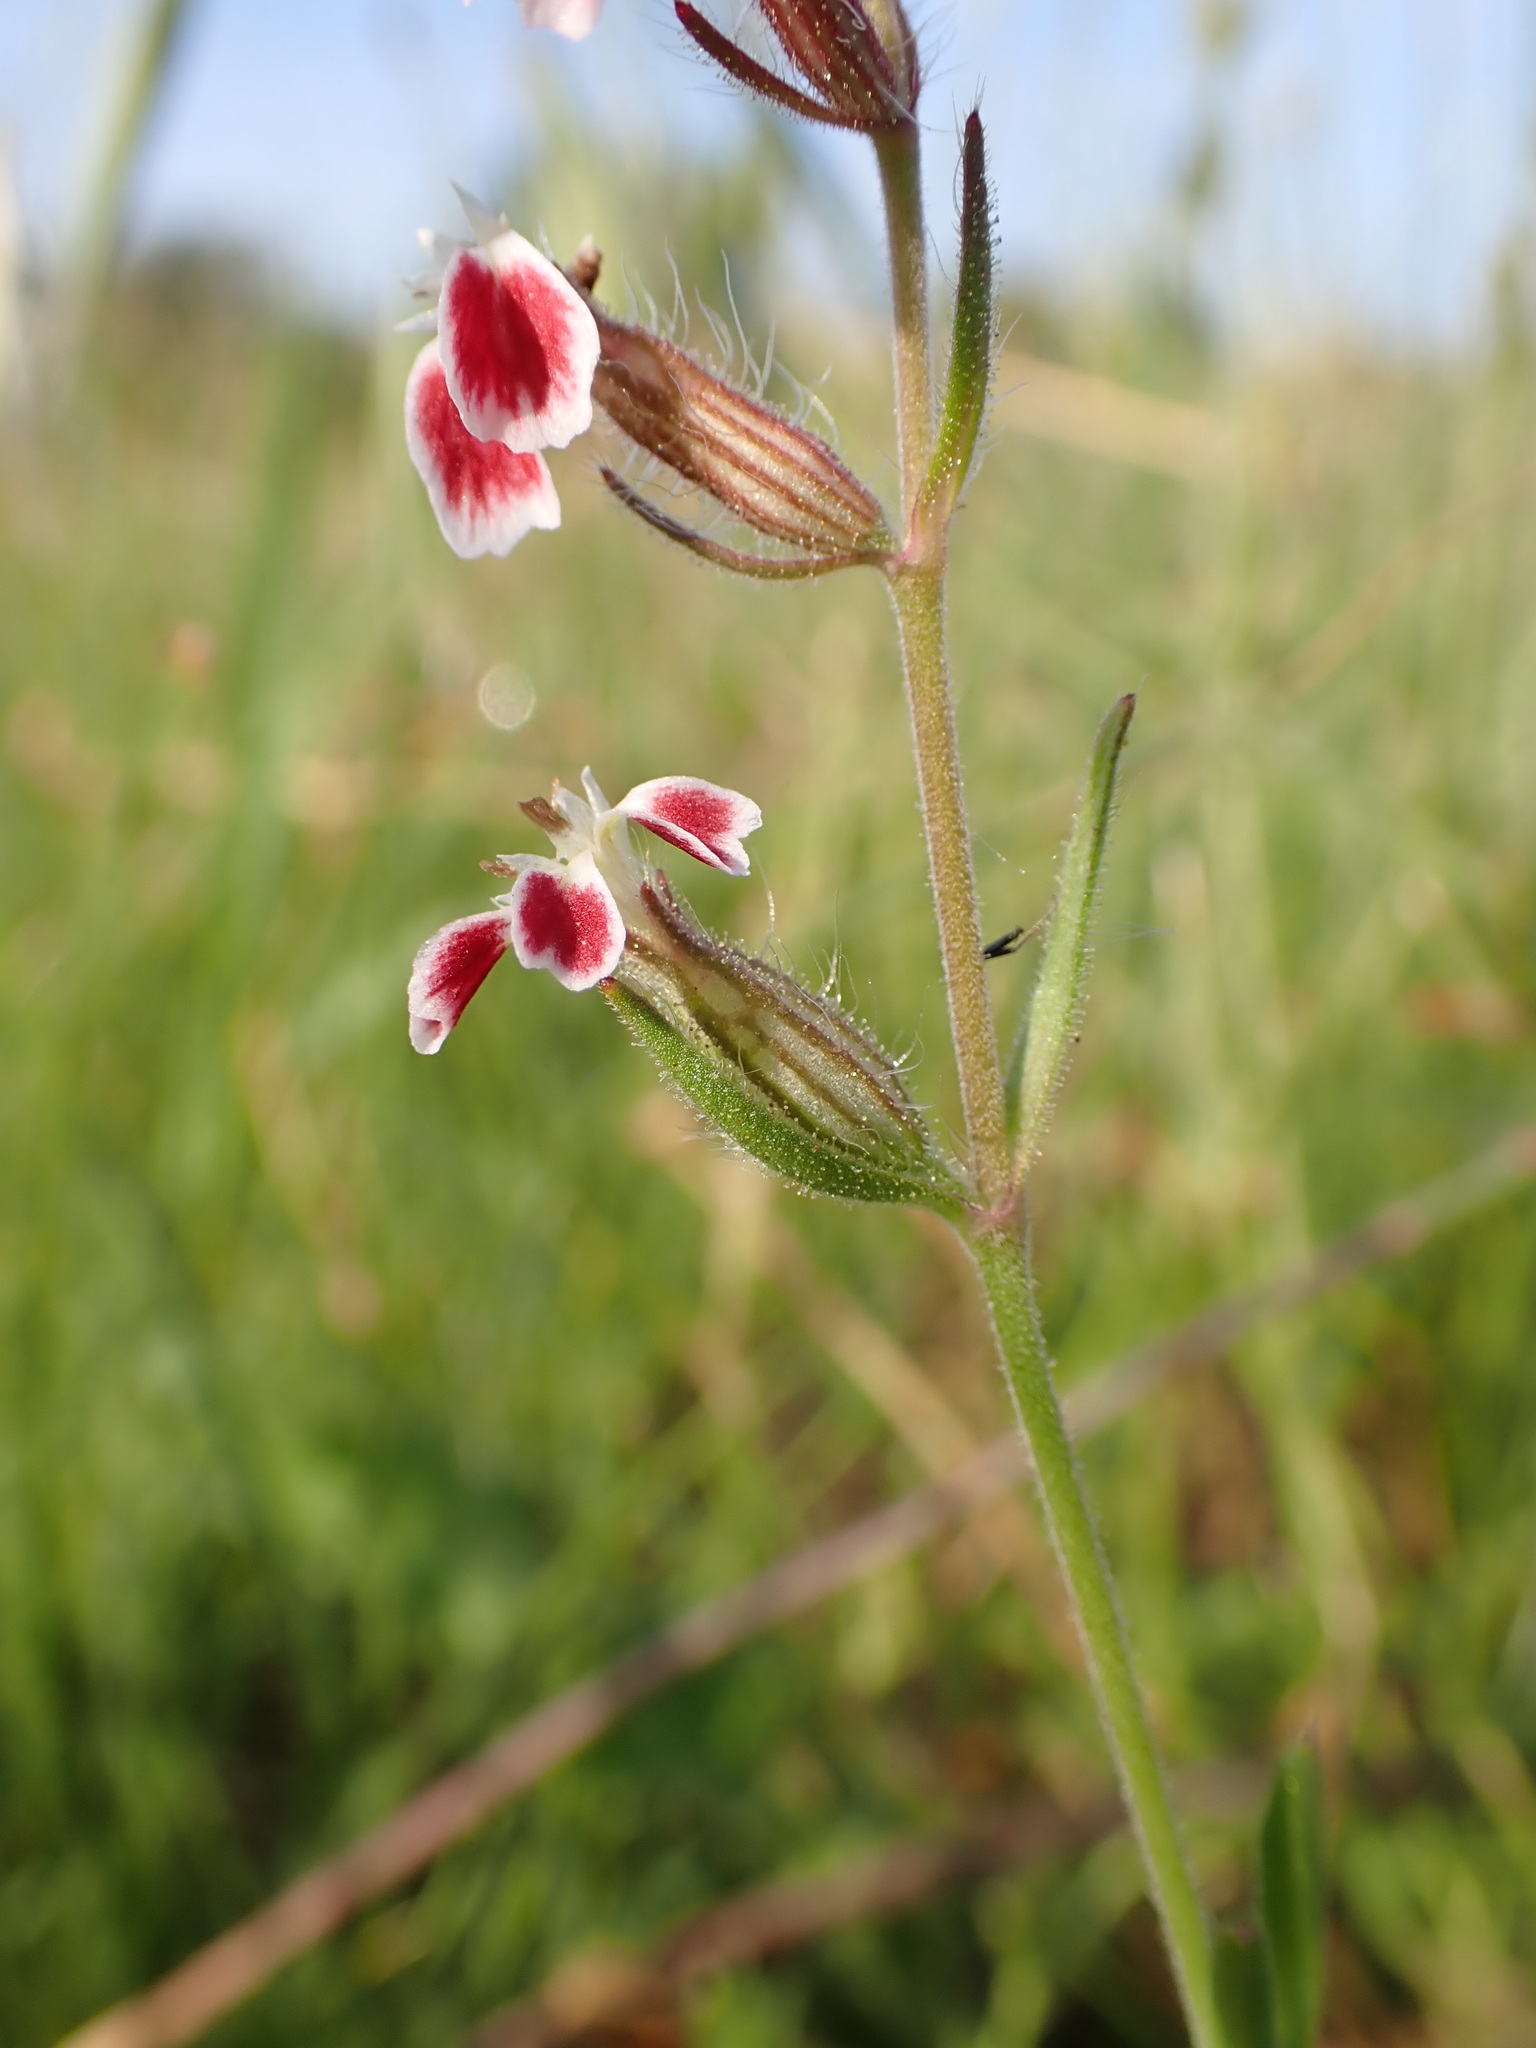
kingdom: Plantae
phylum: Tracheophyta
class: Magnoliopsida
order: Caryophyllales
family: Caryophyllaceae
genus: Silene
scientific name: Silene gallica
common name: Small-flowered catchfly
